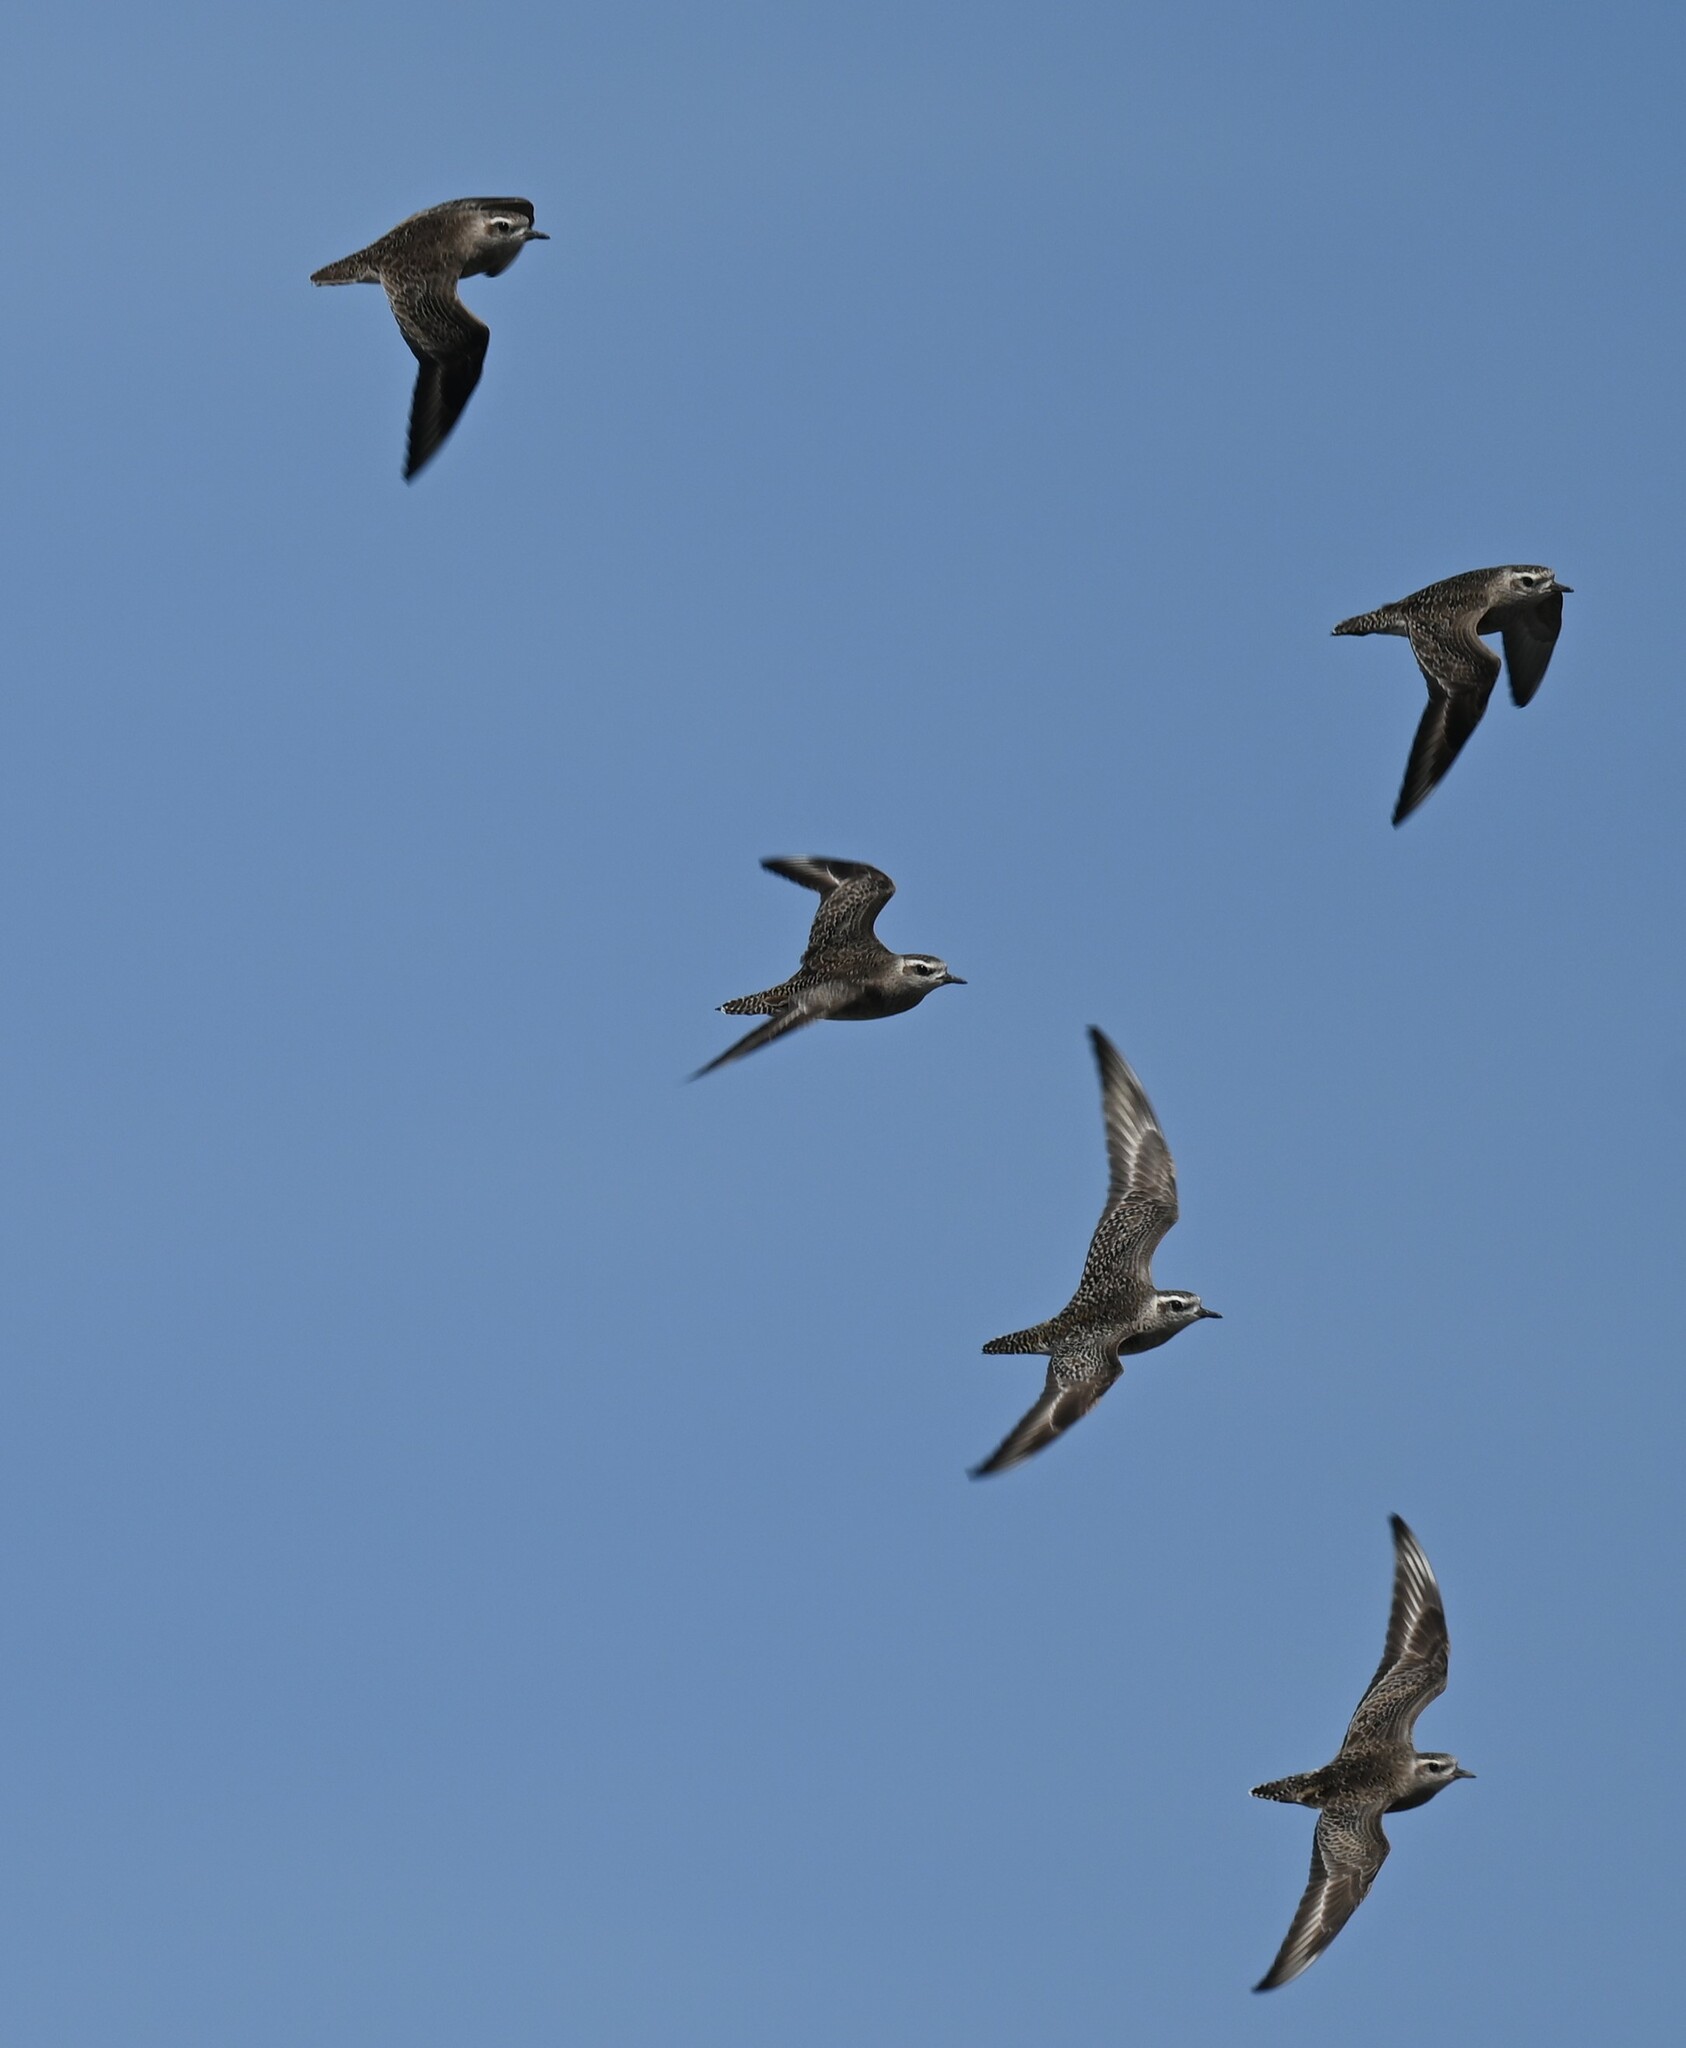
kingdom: Animalia
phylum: Chordata
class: Aves
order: Charadriiformes
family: Charadriidae
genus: Pluvialis
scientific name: Pluvialis dominica
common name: American golden plover
